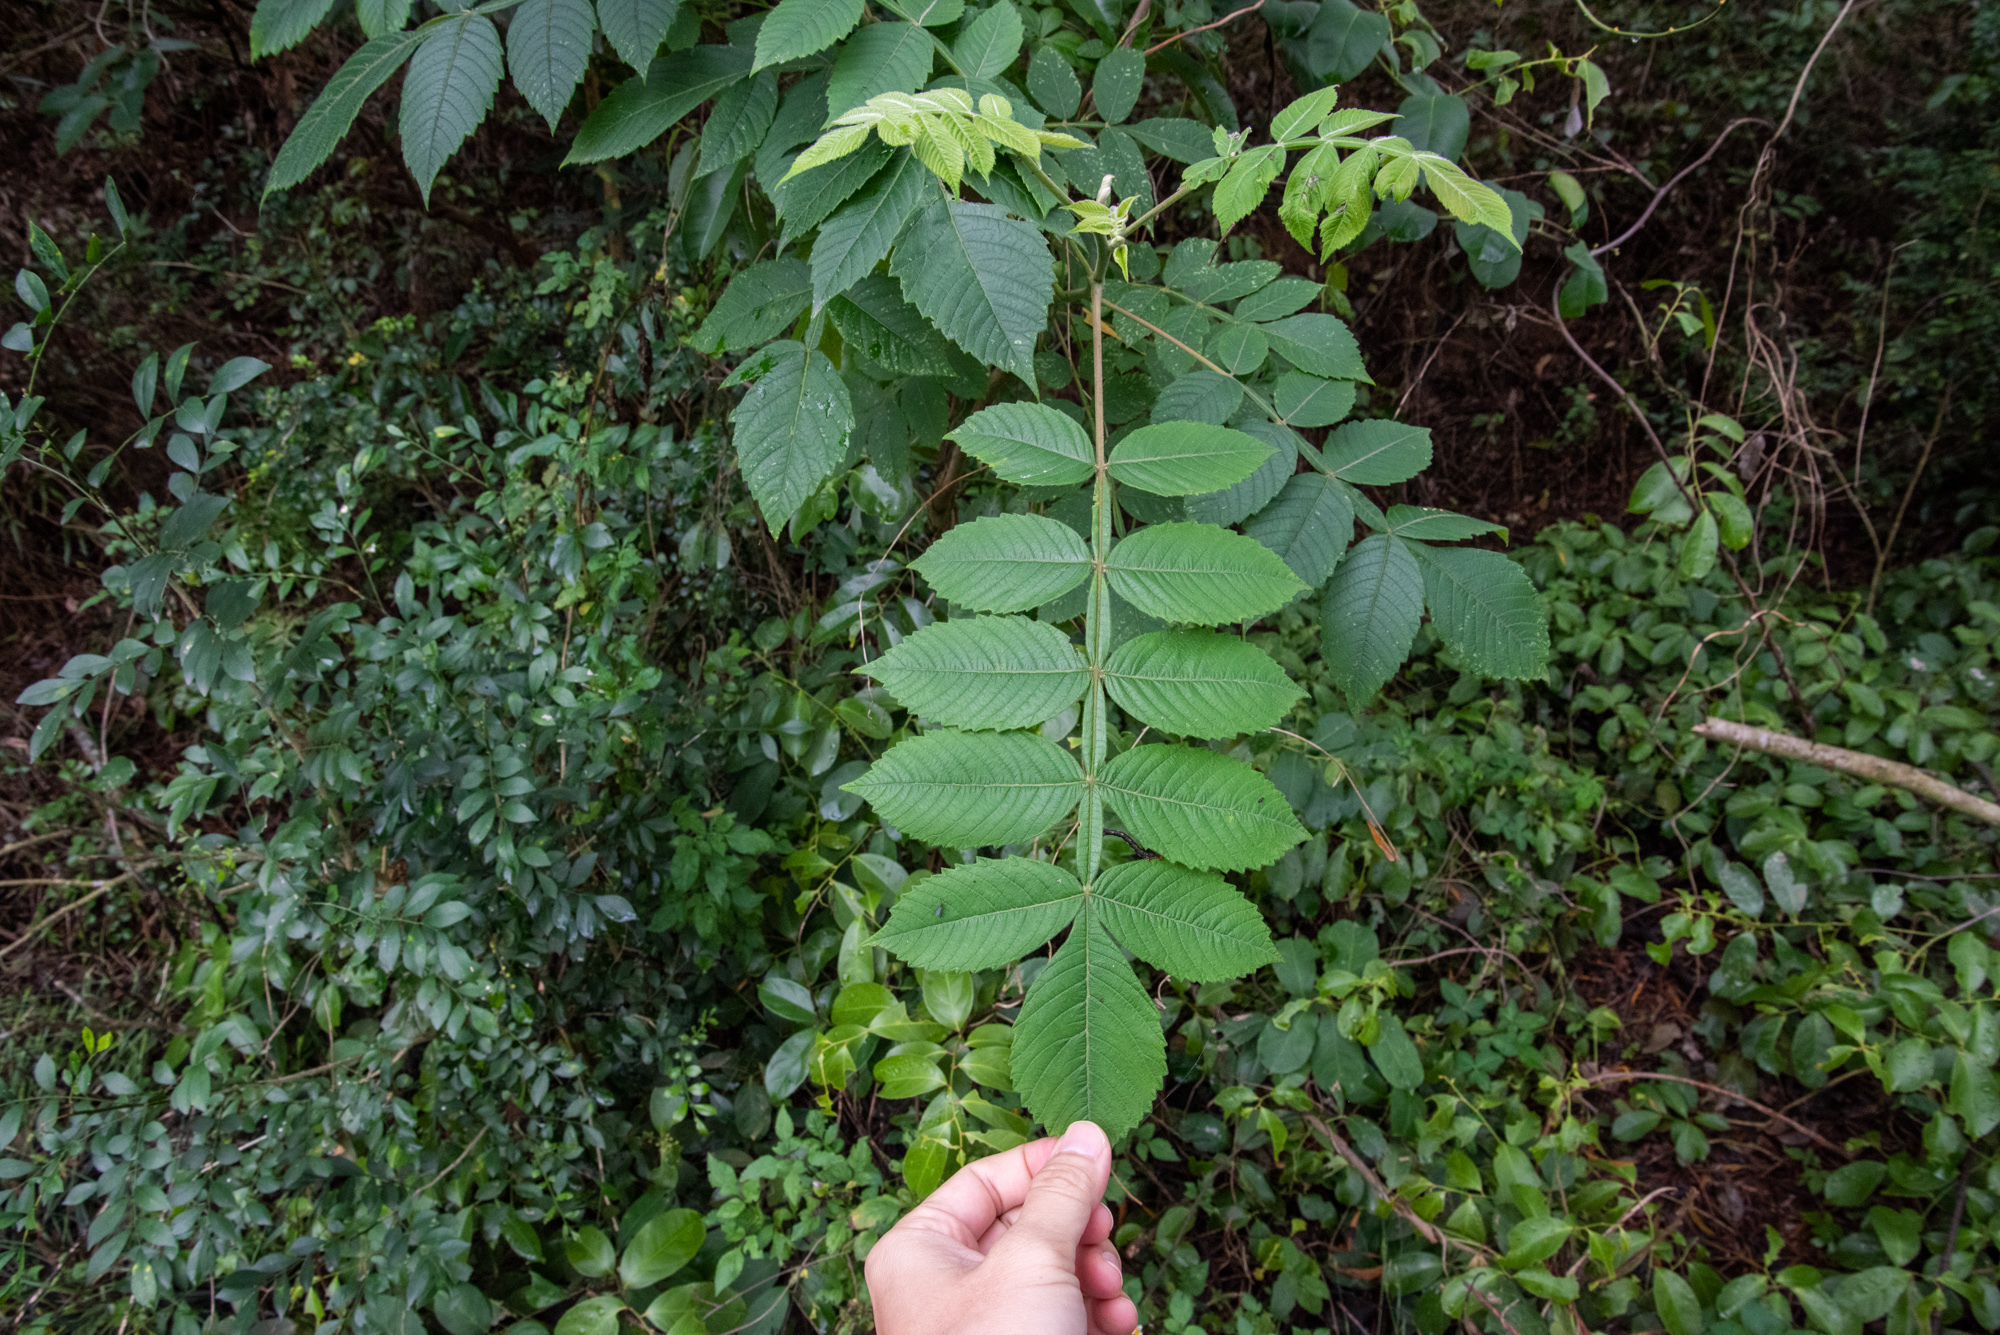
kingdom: Plantae
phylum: Tracheophyta
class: Magnoliopsida
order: Sapindales
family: Anacardiaceae
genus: Rhus
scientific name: Rhus chinensis
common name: Chinese gall
